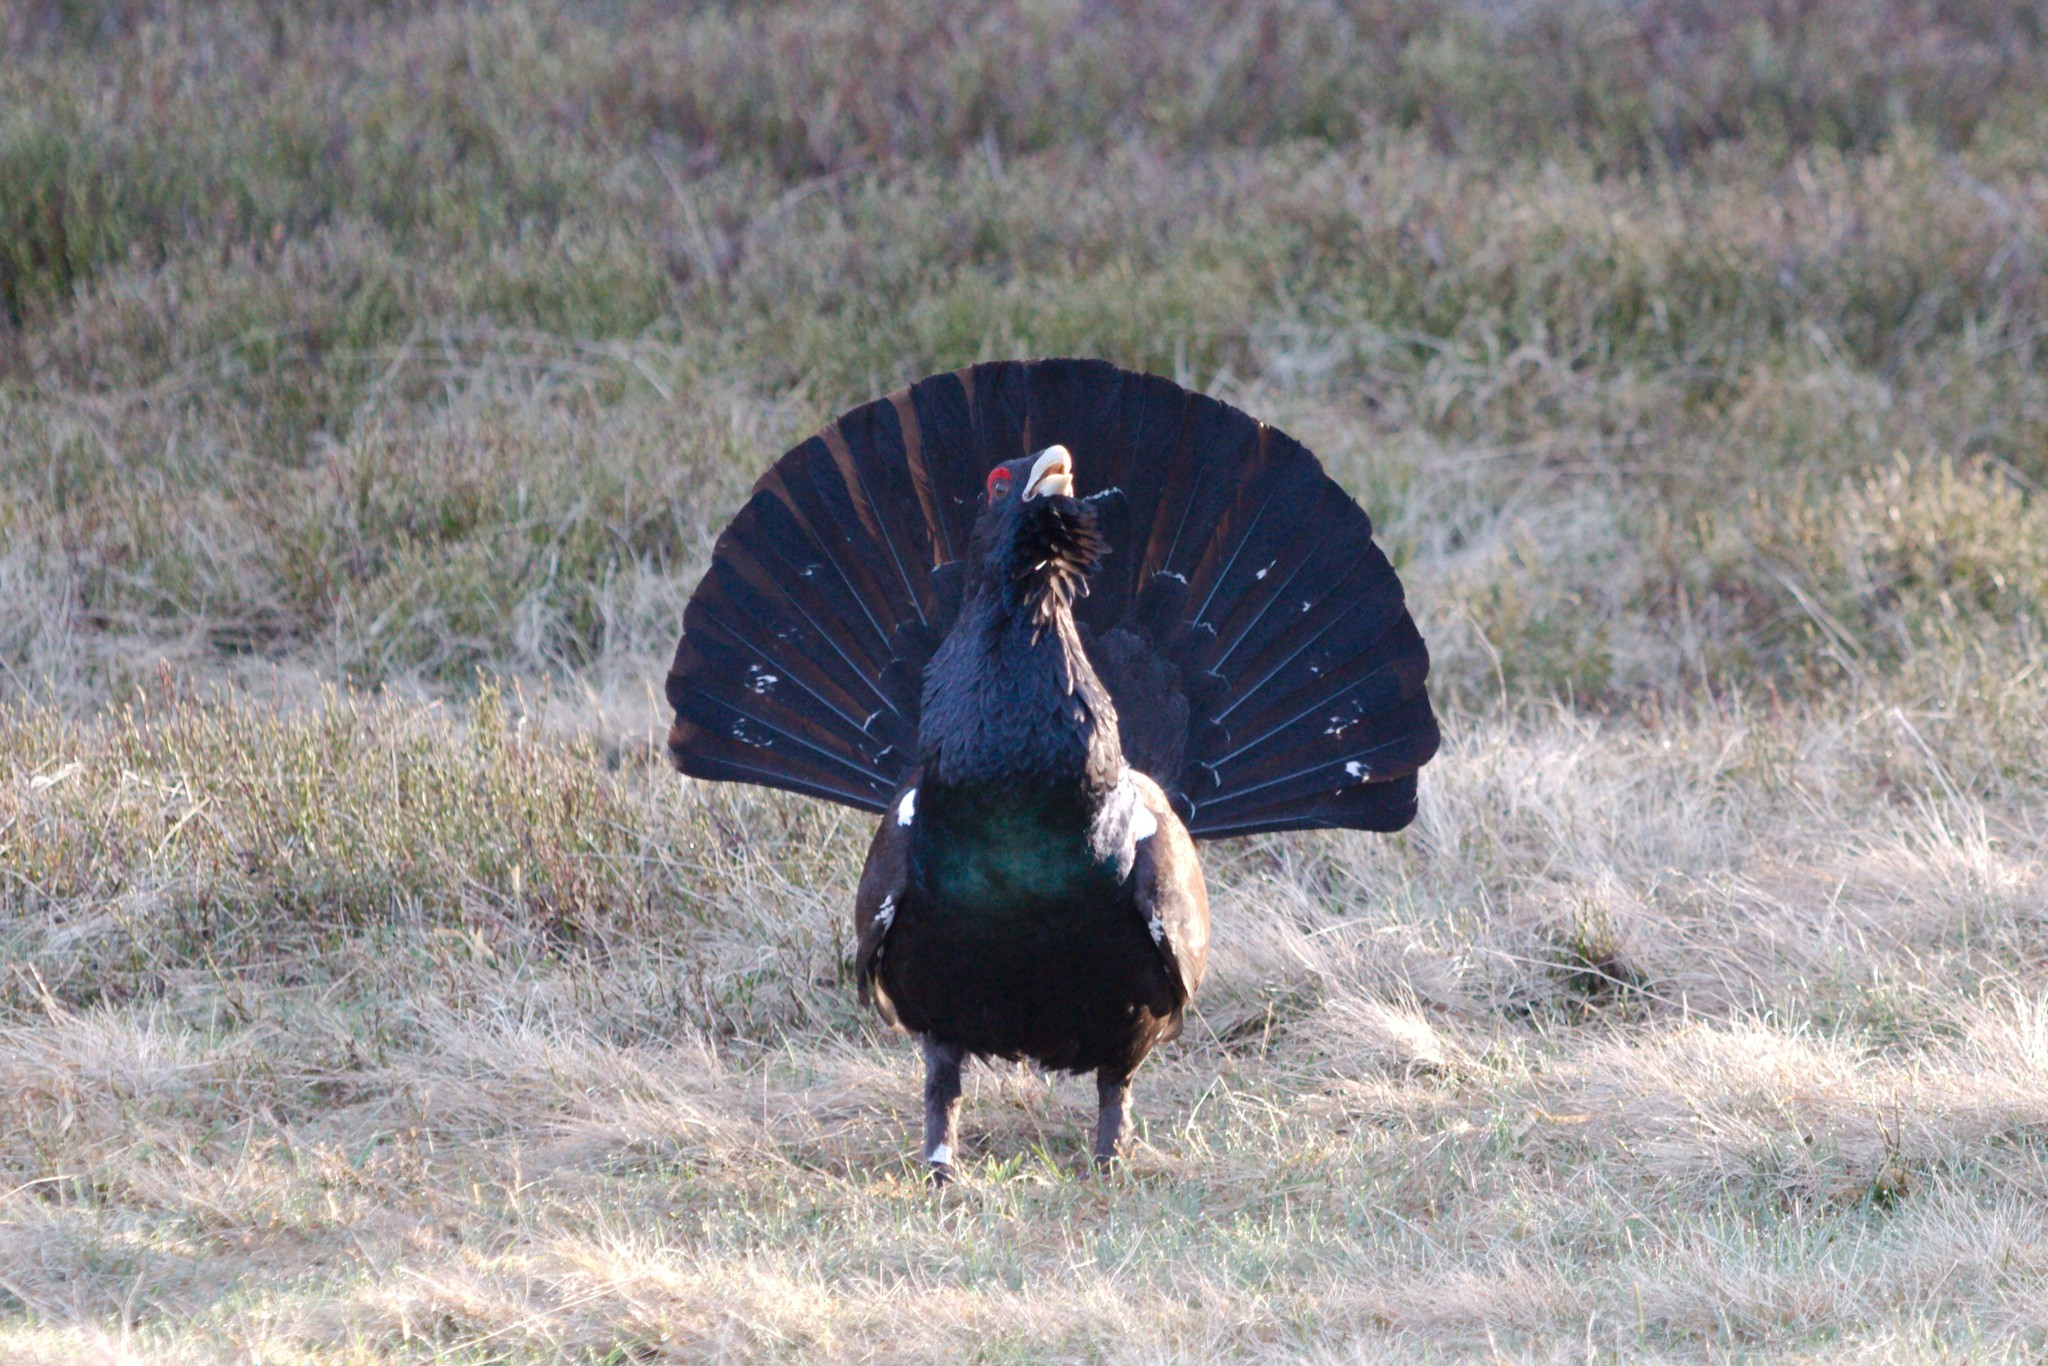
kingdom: Animalia
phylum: Chordata
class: Aves
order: Galliformes
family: Phasianidae
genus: Tetrao
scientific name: Tetrao urogallus
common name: Western capercaillie
